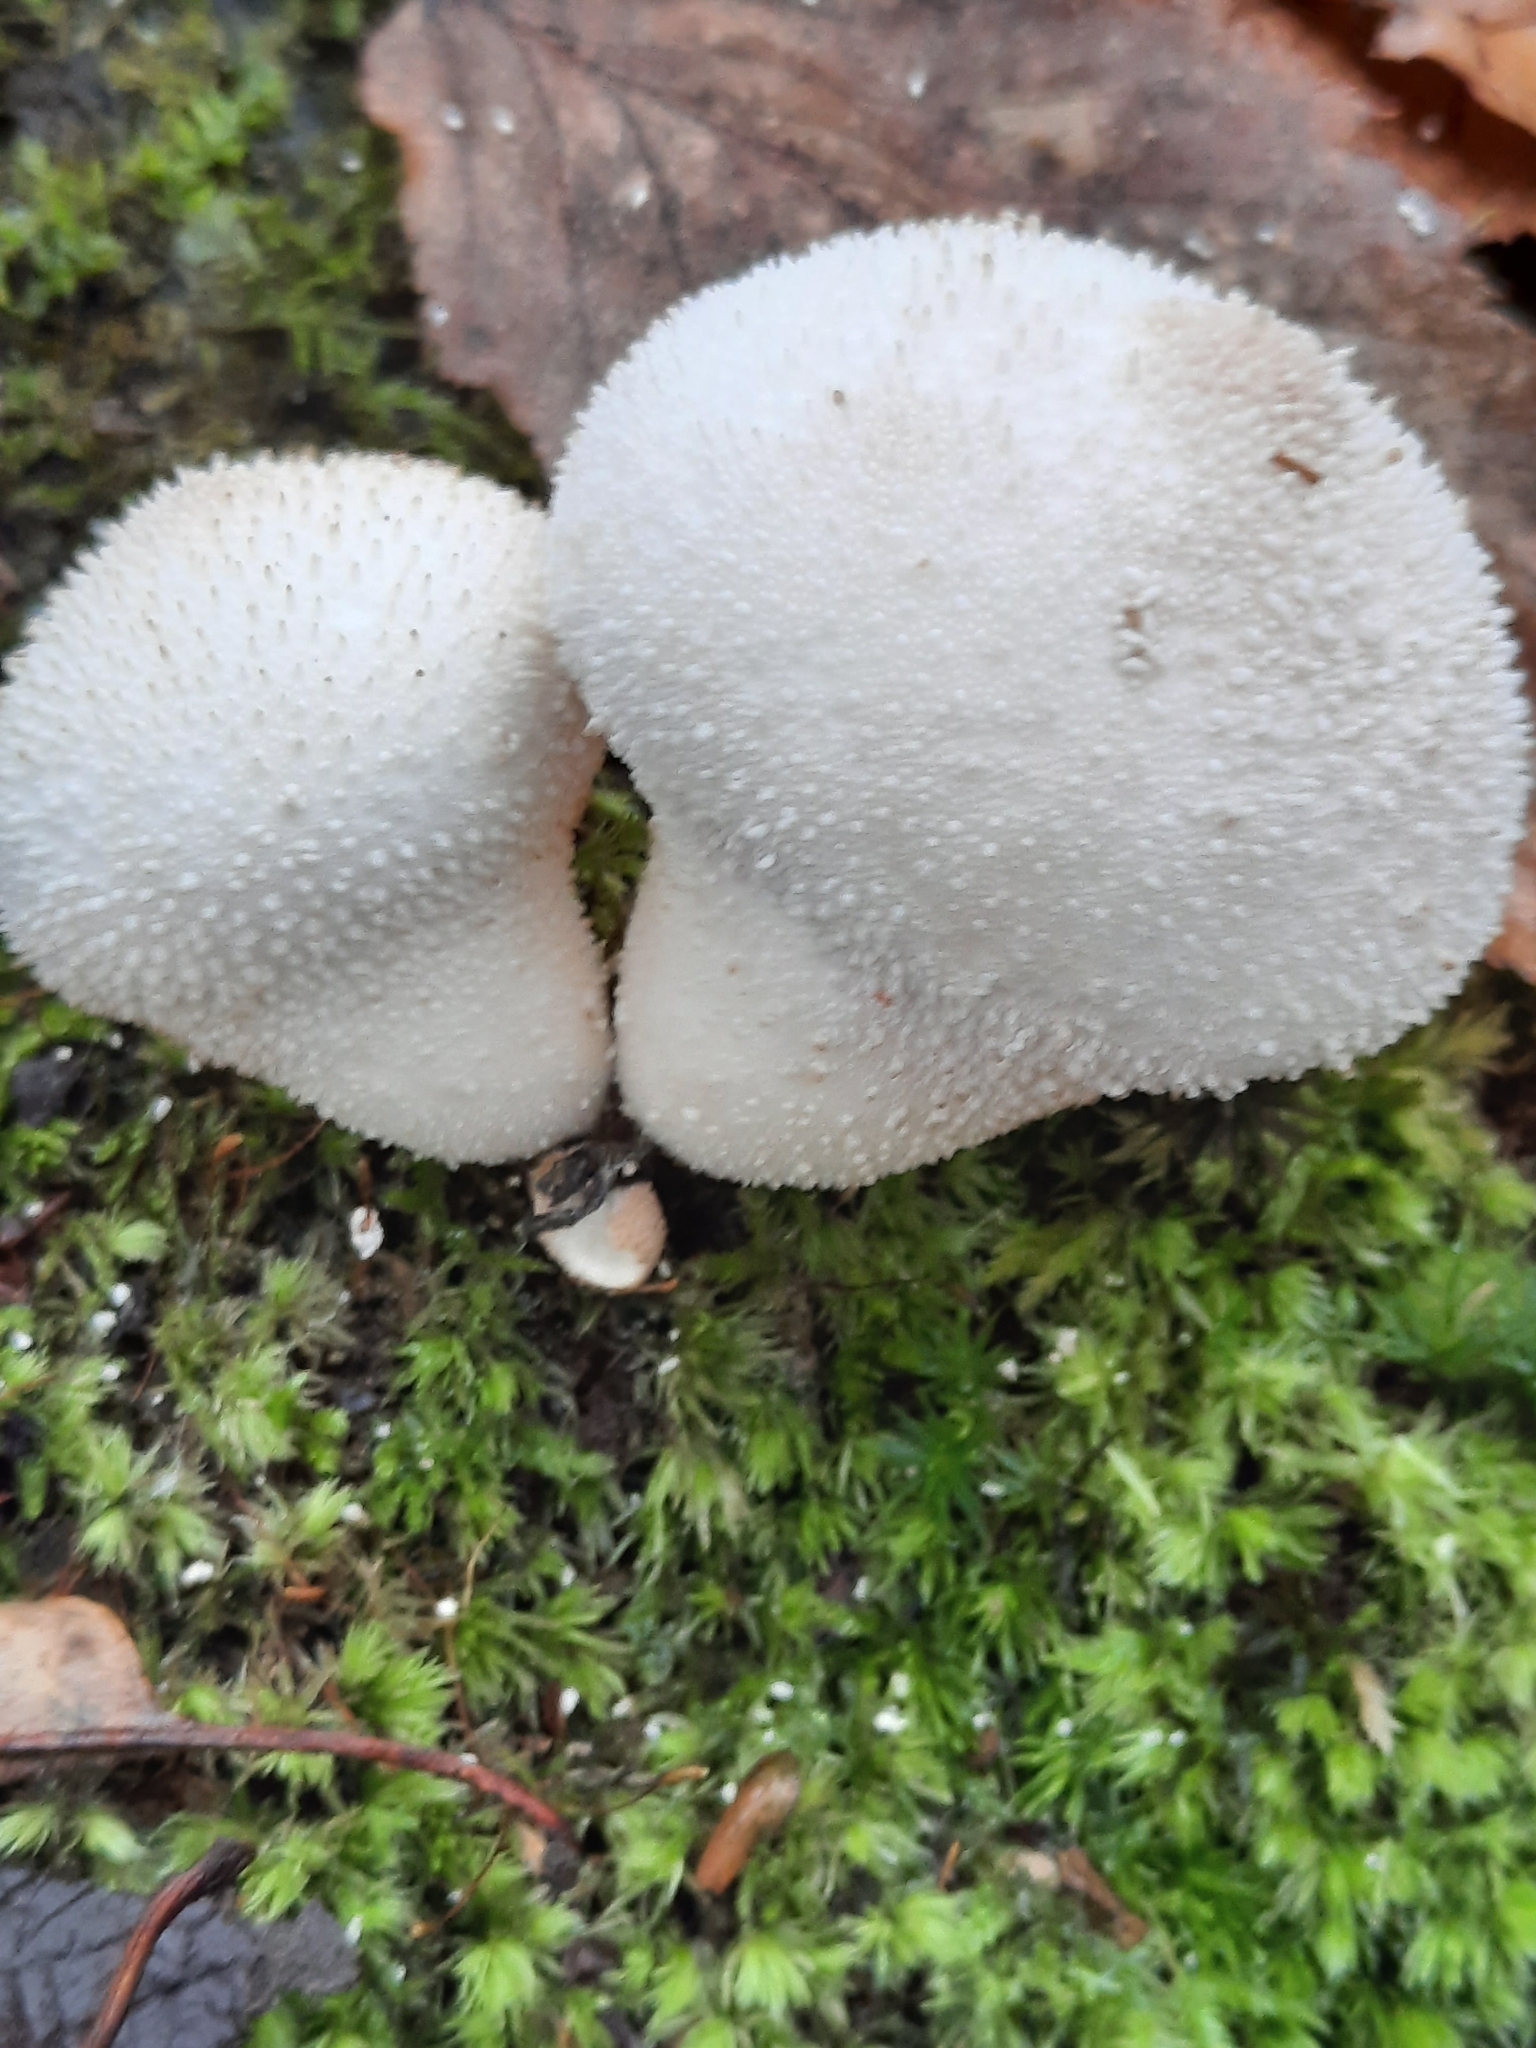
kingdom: Fungi
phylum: Basidiomycota
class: Agaricomycetes
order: Agaricales
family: Lycoperdaceae
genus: Lycoperdon
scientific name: Lycoperdon perlatum
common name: Common puffball
